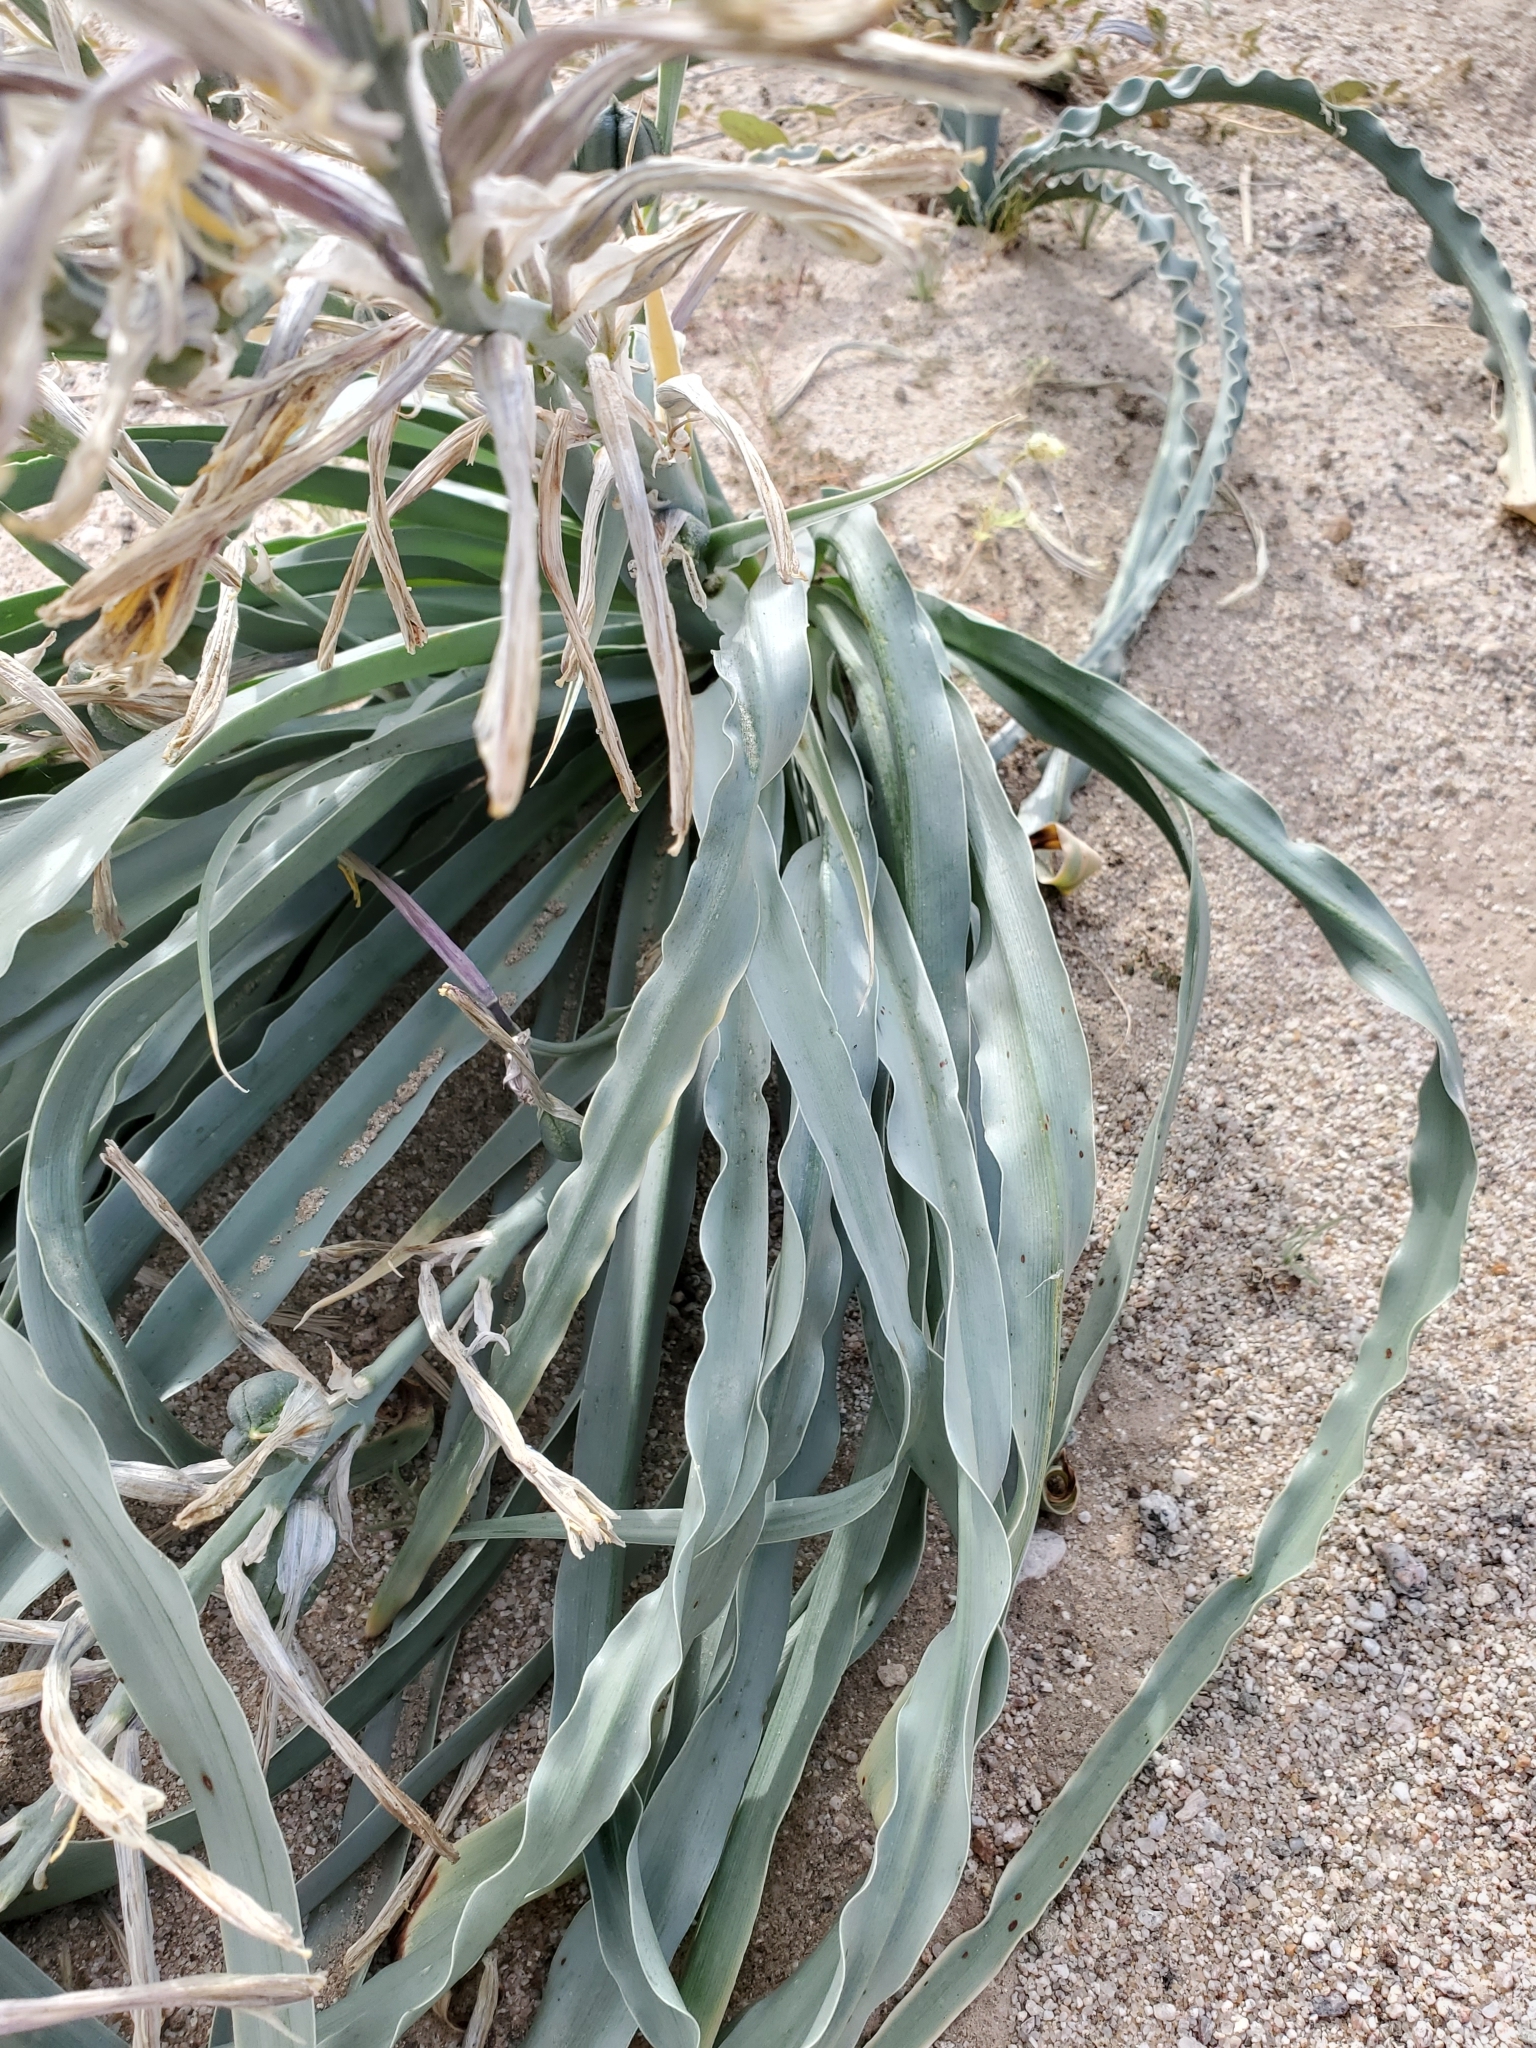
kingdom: Plantae
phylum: Tracheophyta
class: Liliopsida
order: Asparagales
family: Asparagaceae
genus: Hesperocallis
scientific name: Hesperocallis undulata
